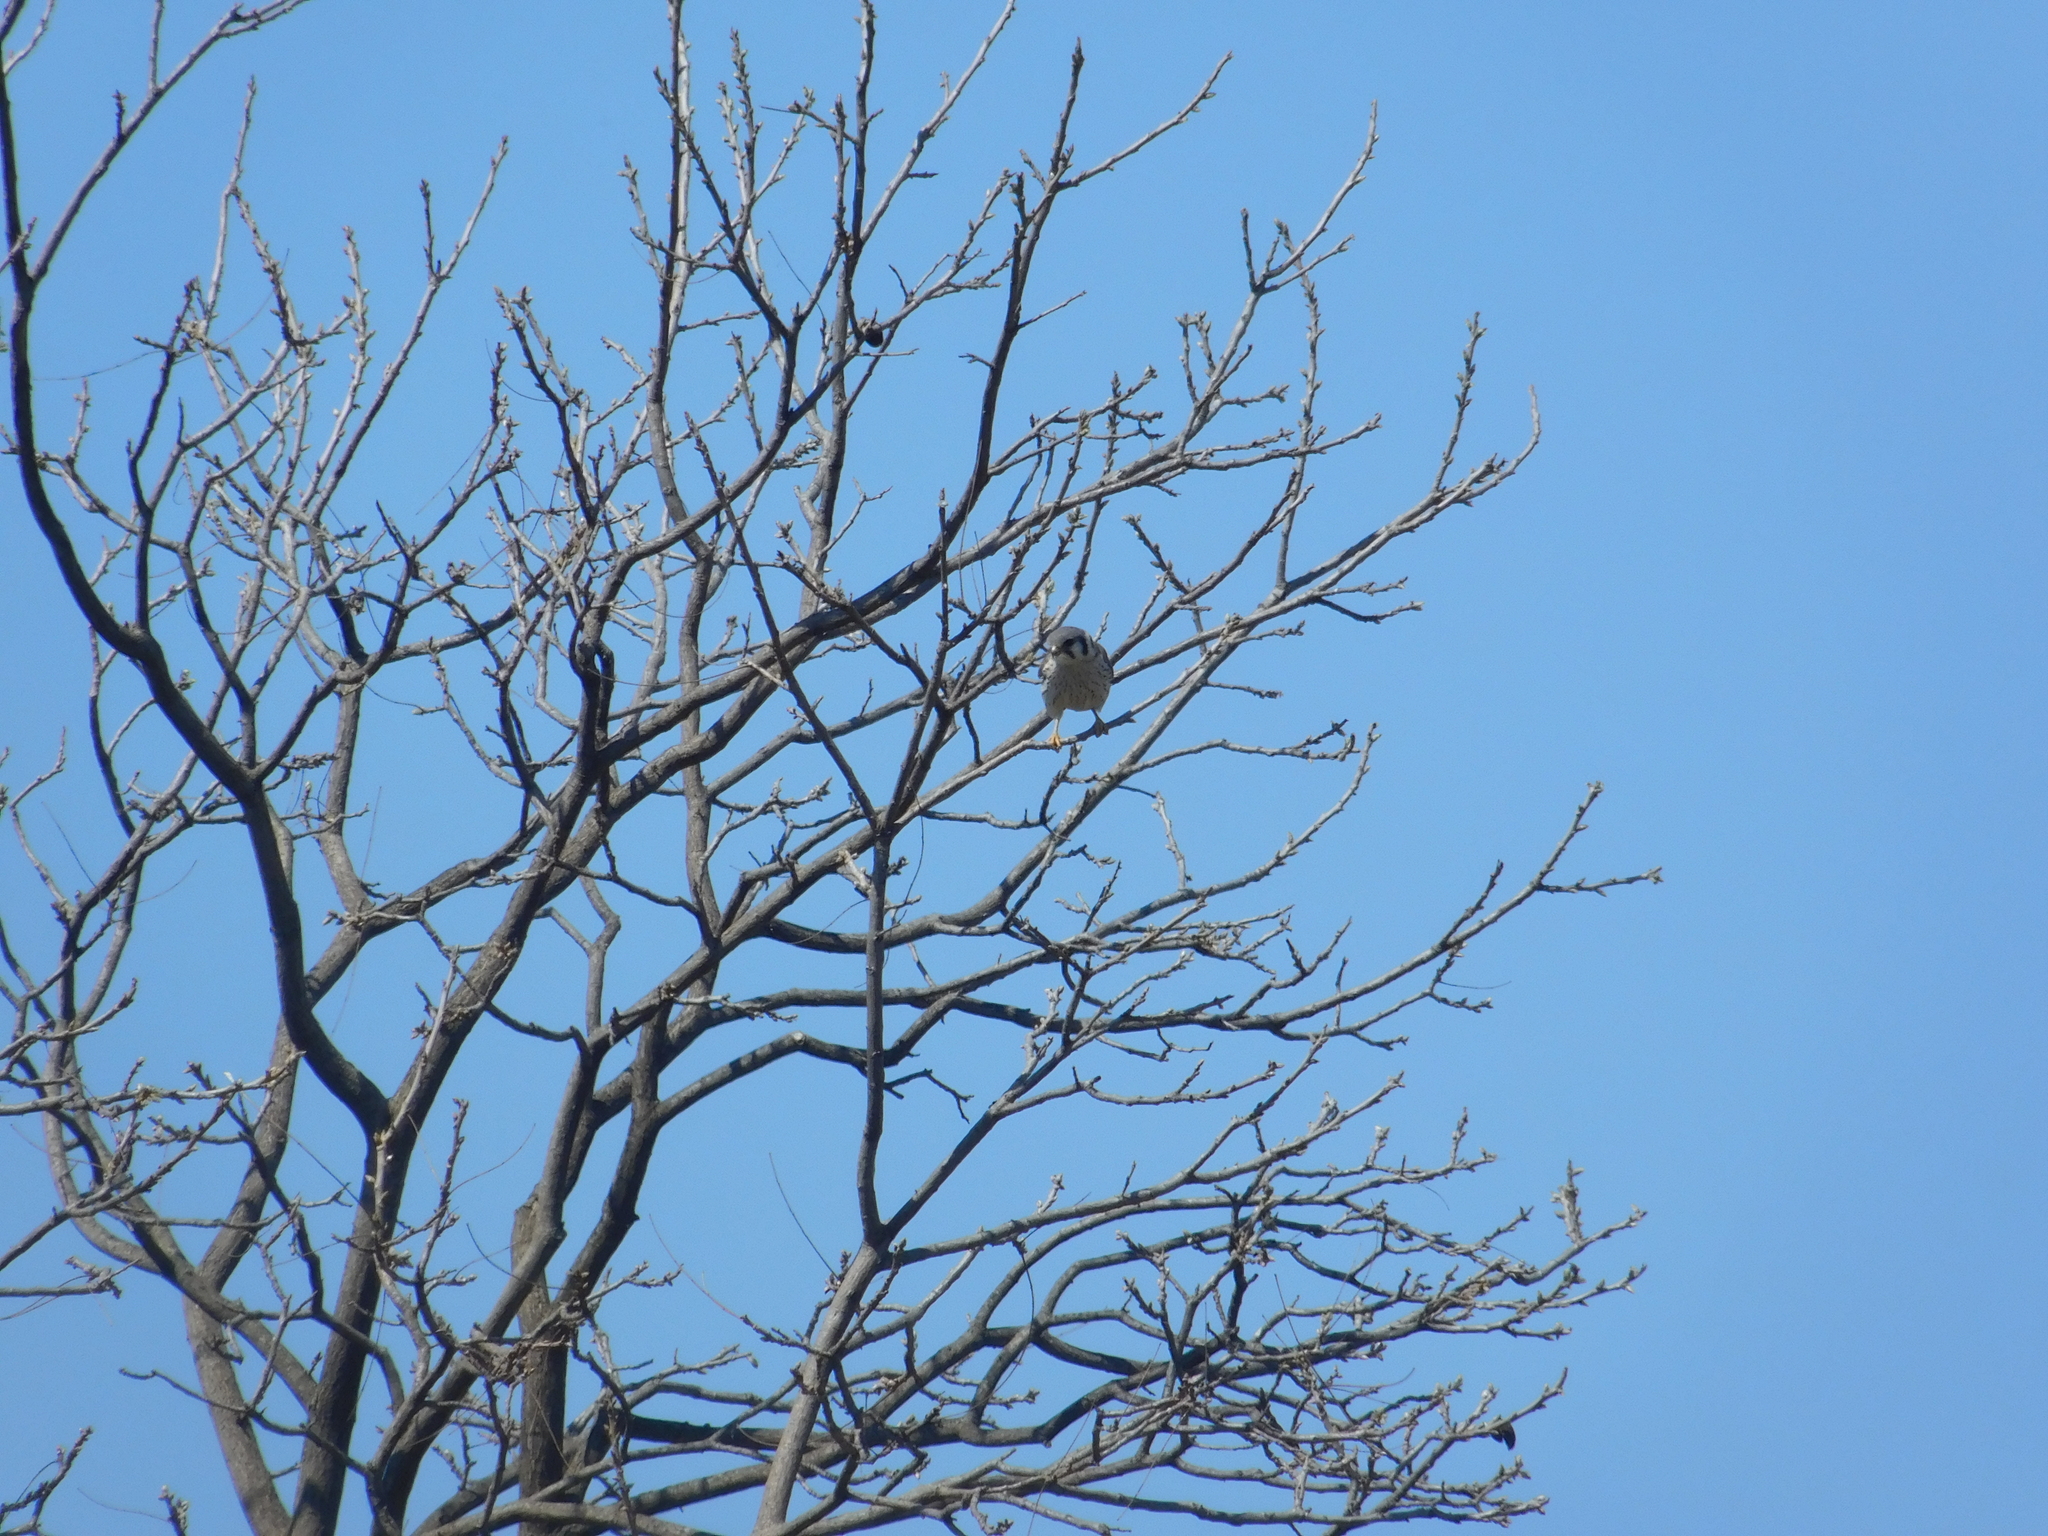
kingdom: Animalia
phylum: Chordata
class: Aves
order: Falconiformes
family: Falconidae
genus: Falco
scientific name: Falco sparverius
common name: American kestrel
